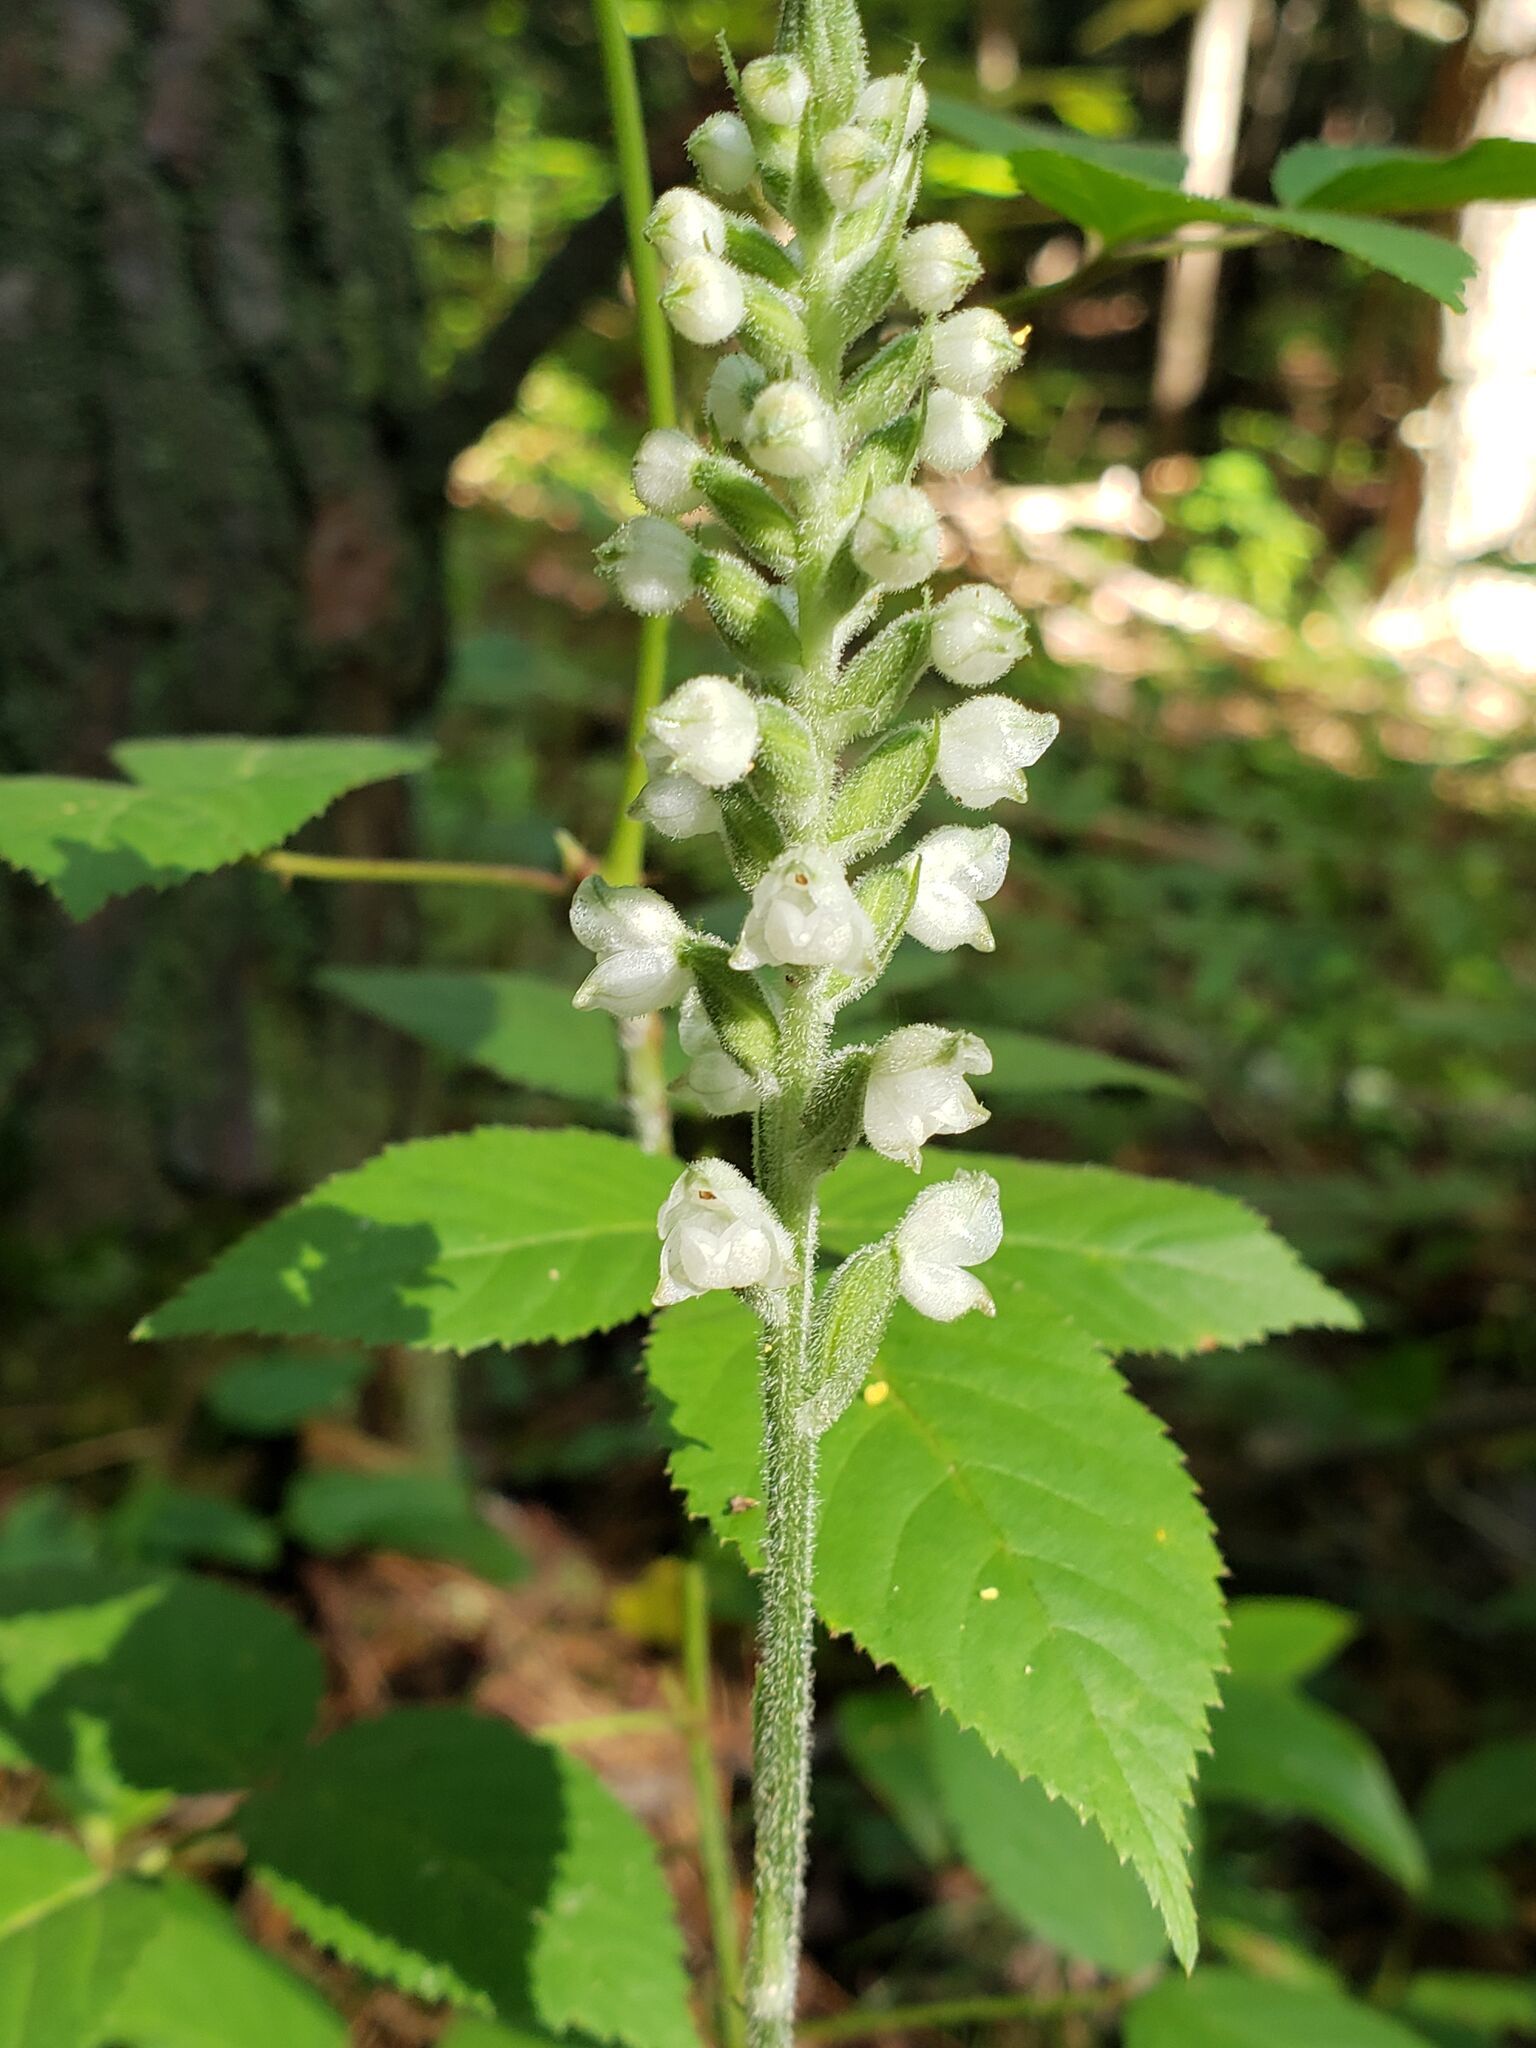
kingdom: Plantae
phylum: Tracheophyta
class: Liliopsida
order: Asparagales
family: Orchidaceae
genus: Goodyera
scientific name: Goodyera pubescens
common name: Downy rattlesnake-plantain
